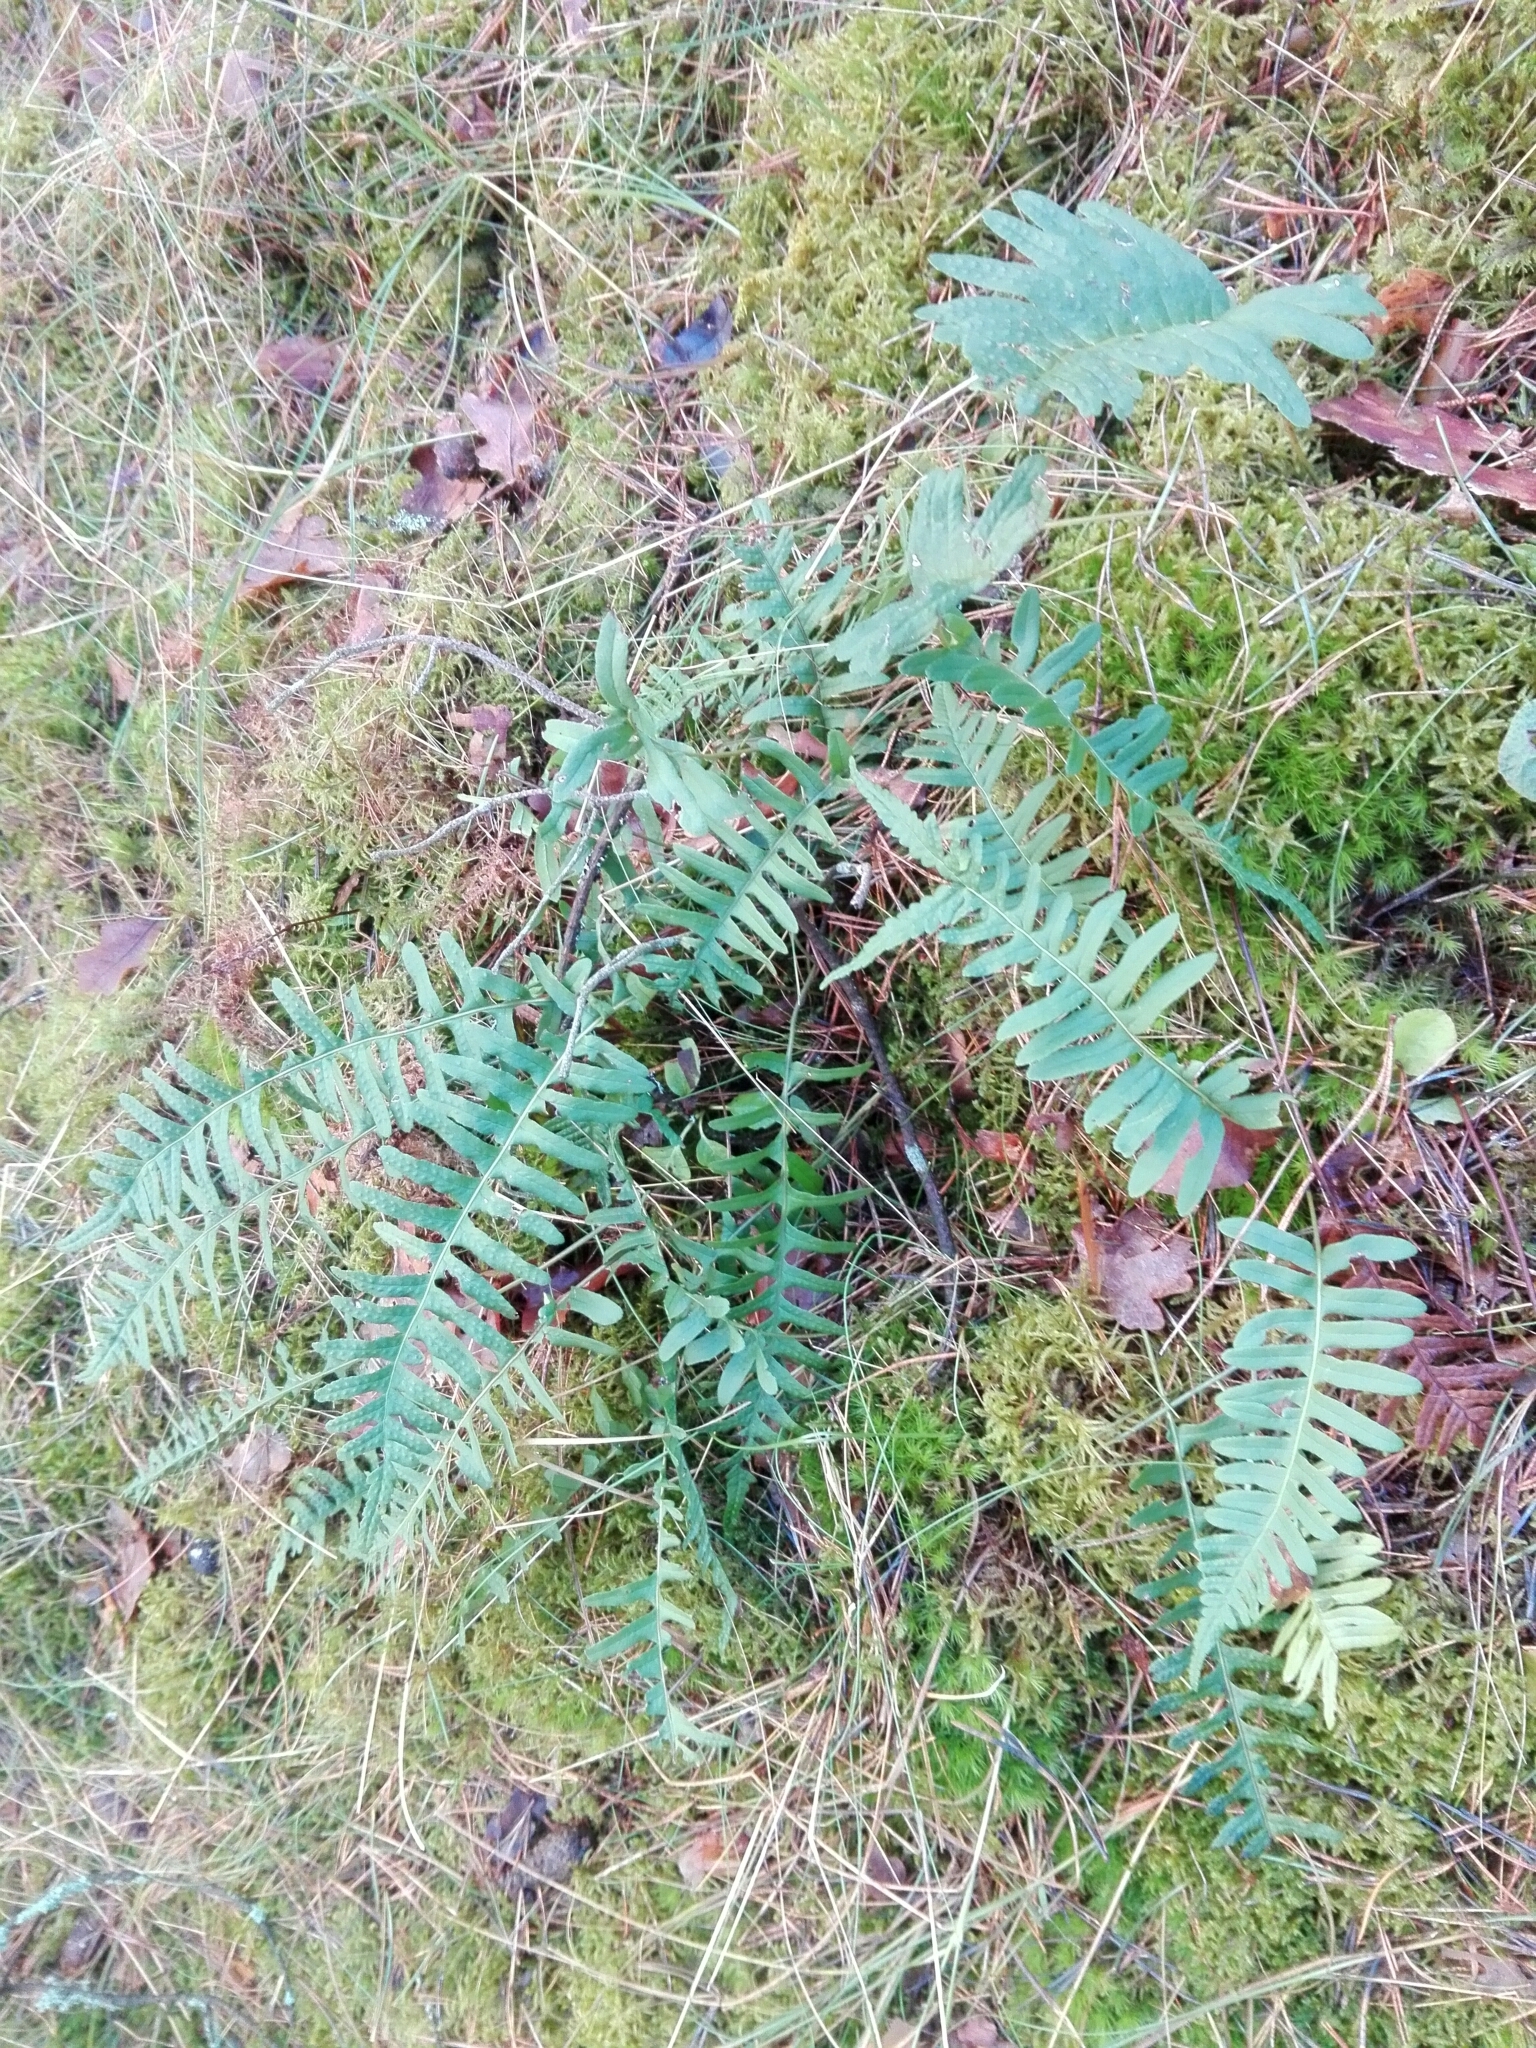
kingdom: Plantae
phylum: Tracheophyta
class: Polypodiopsida
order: Polypodiales
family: Polypodiaceae
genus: Polypodium
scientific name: Polypodium vulgare
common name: Common polypody
